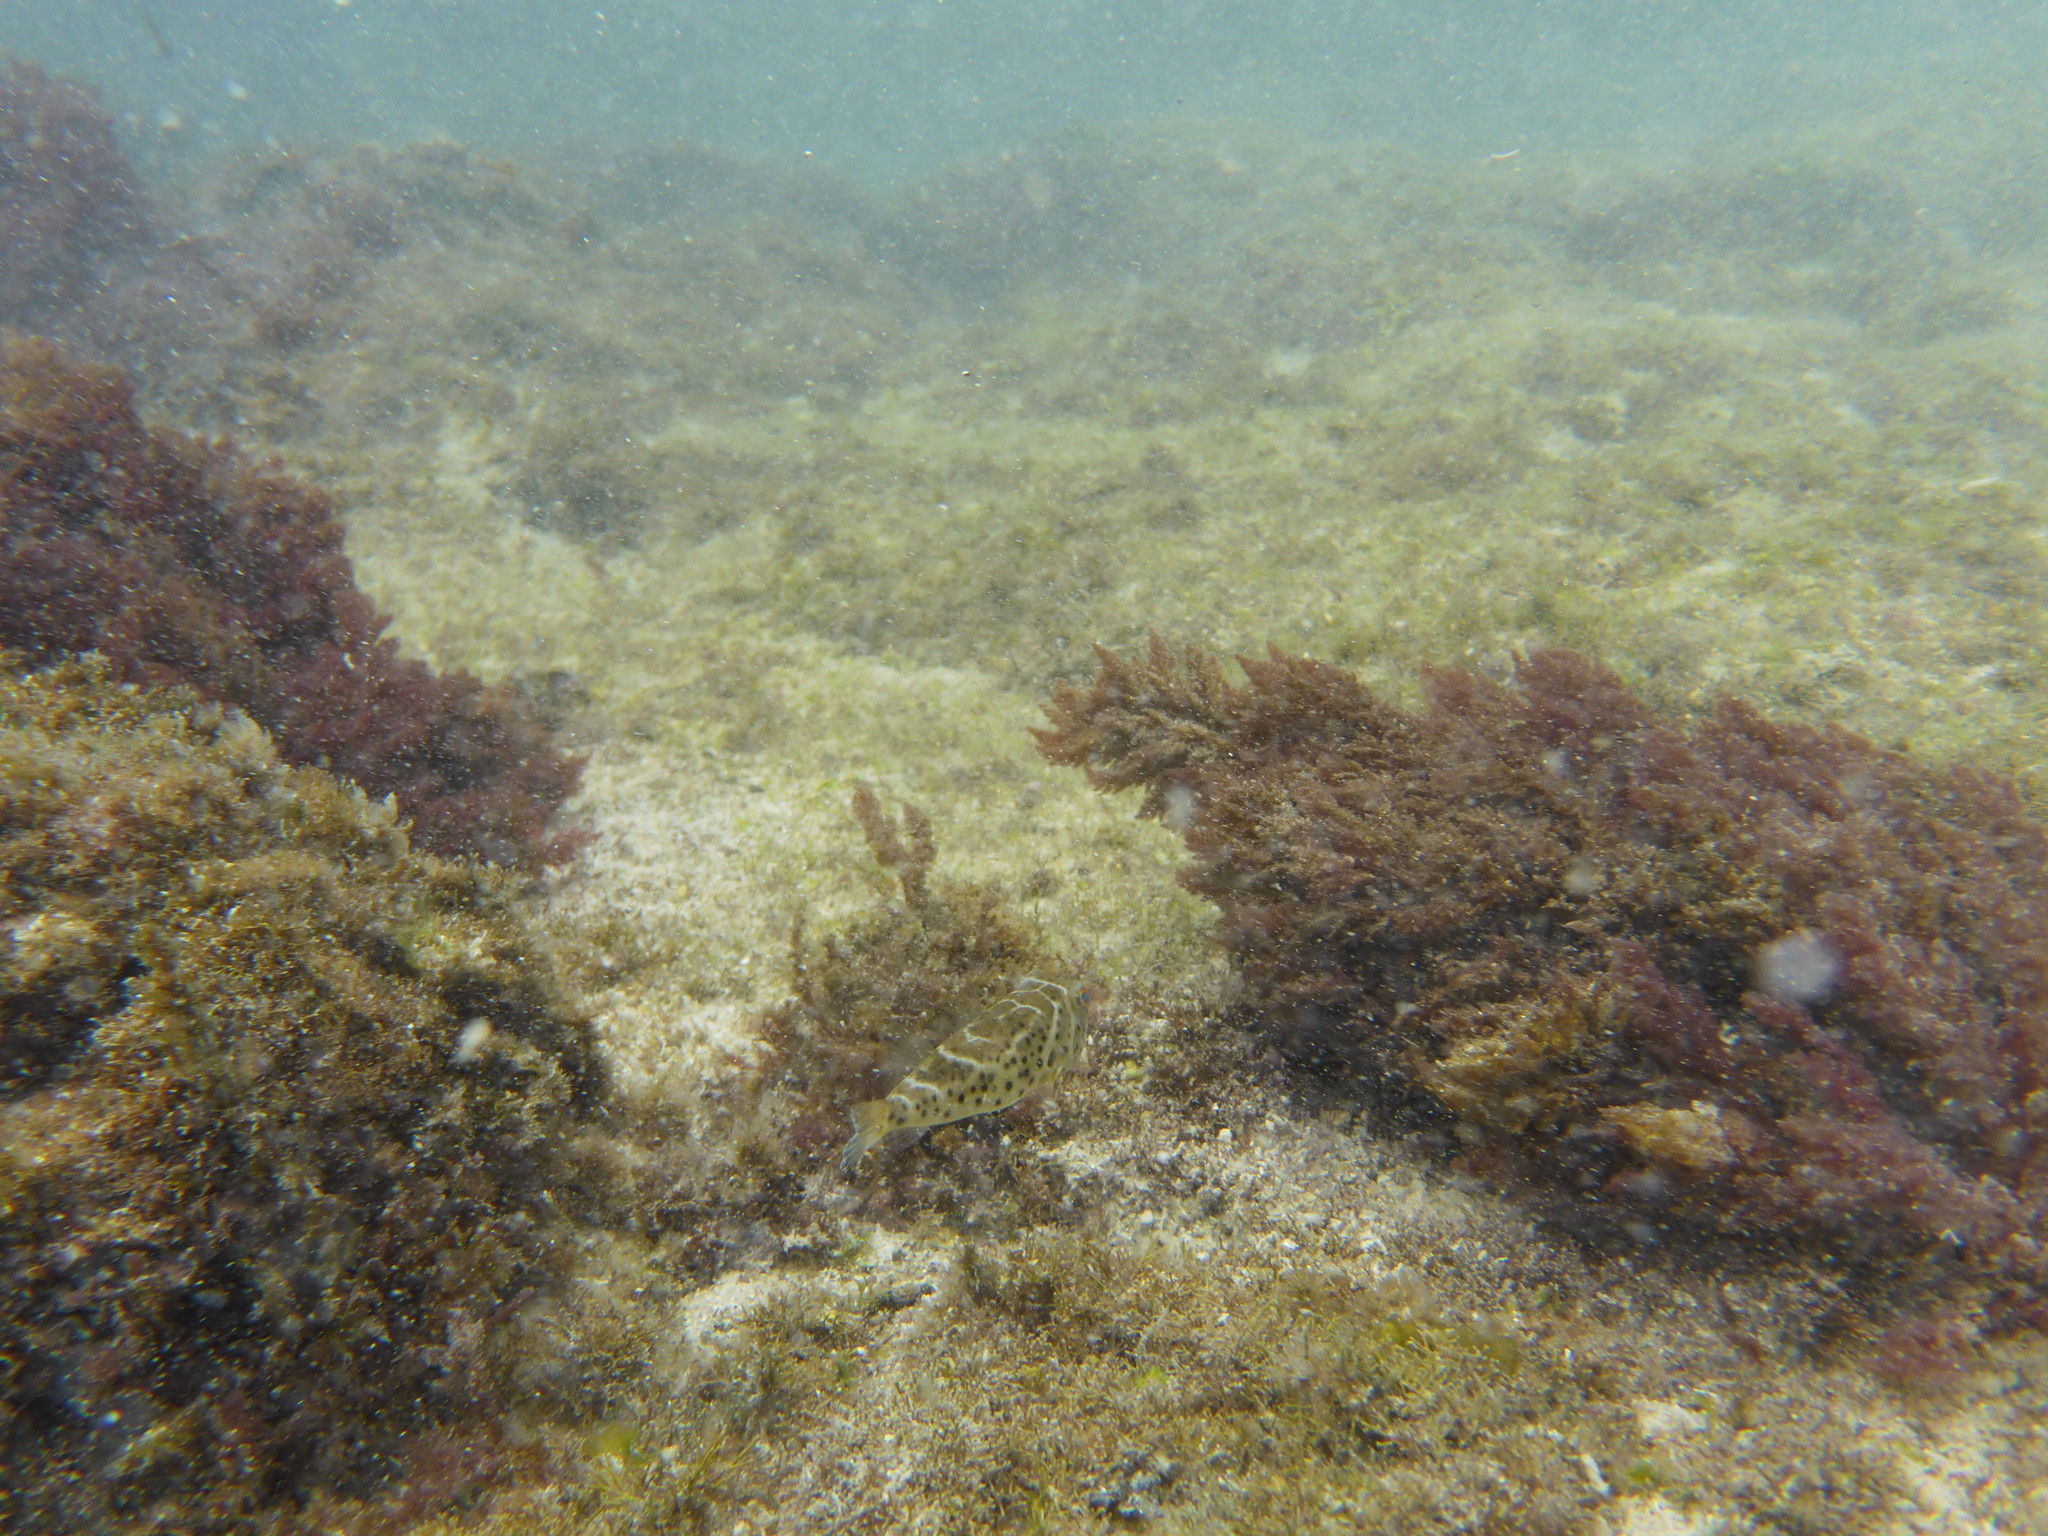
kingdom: Animalia
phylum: Chordata
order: Tetraodontiformes
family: Tetraodontidae
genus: Sphoeroides
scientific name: Sphoeroides annulatus
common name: Bullseye puffer
